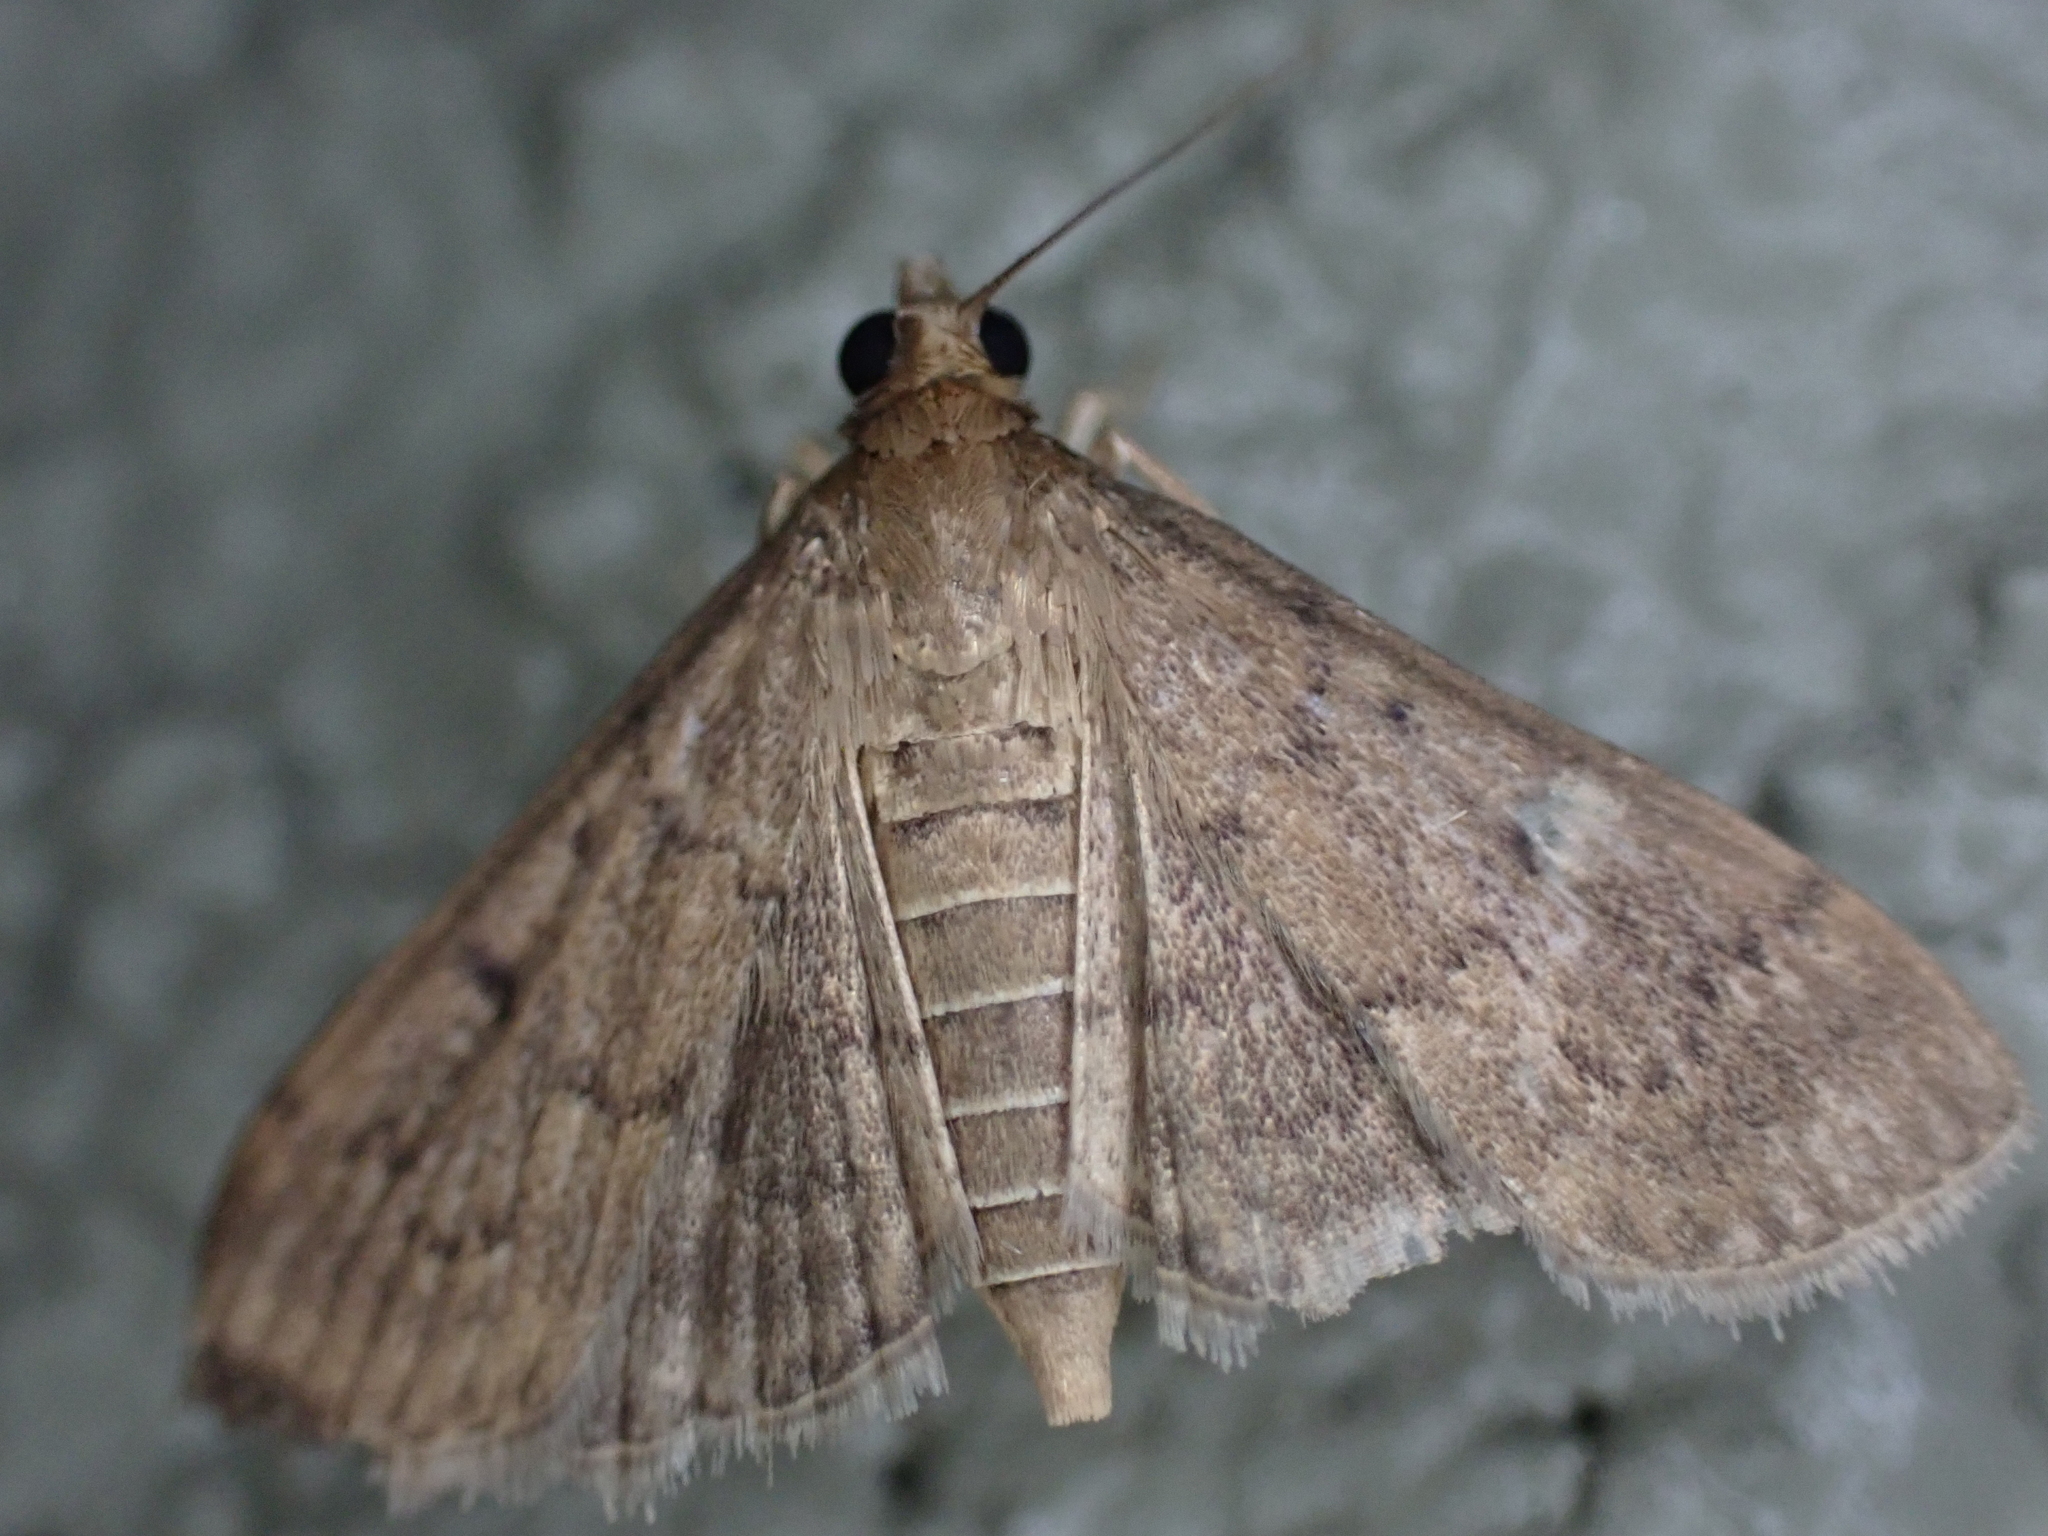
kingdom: Animalia
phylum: Arthropoda
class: Insecta
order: Lepidoptera
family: Crambidae
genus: Herpetogramma
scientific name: Herpetogramma phaeopteralis
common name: Dusky herpetogramma moth
